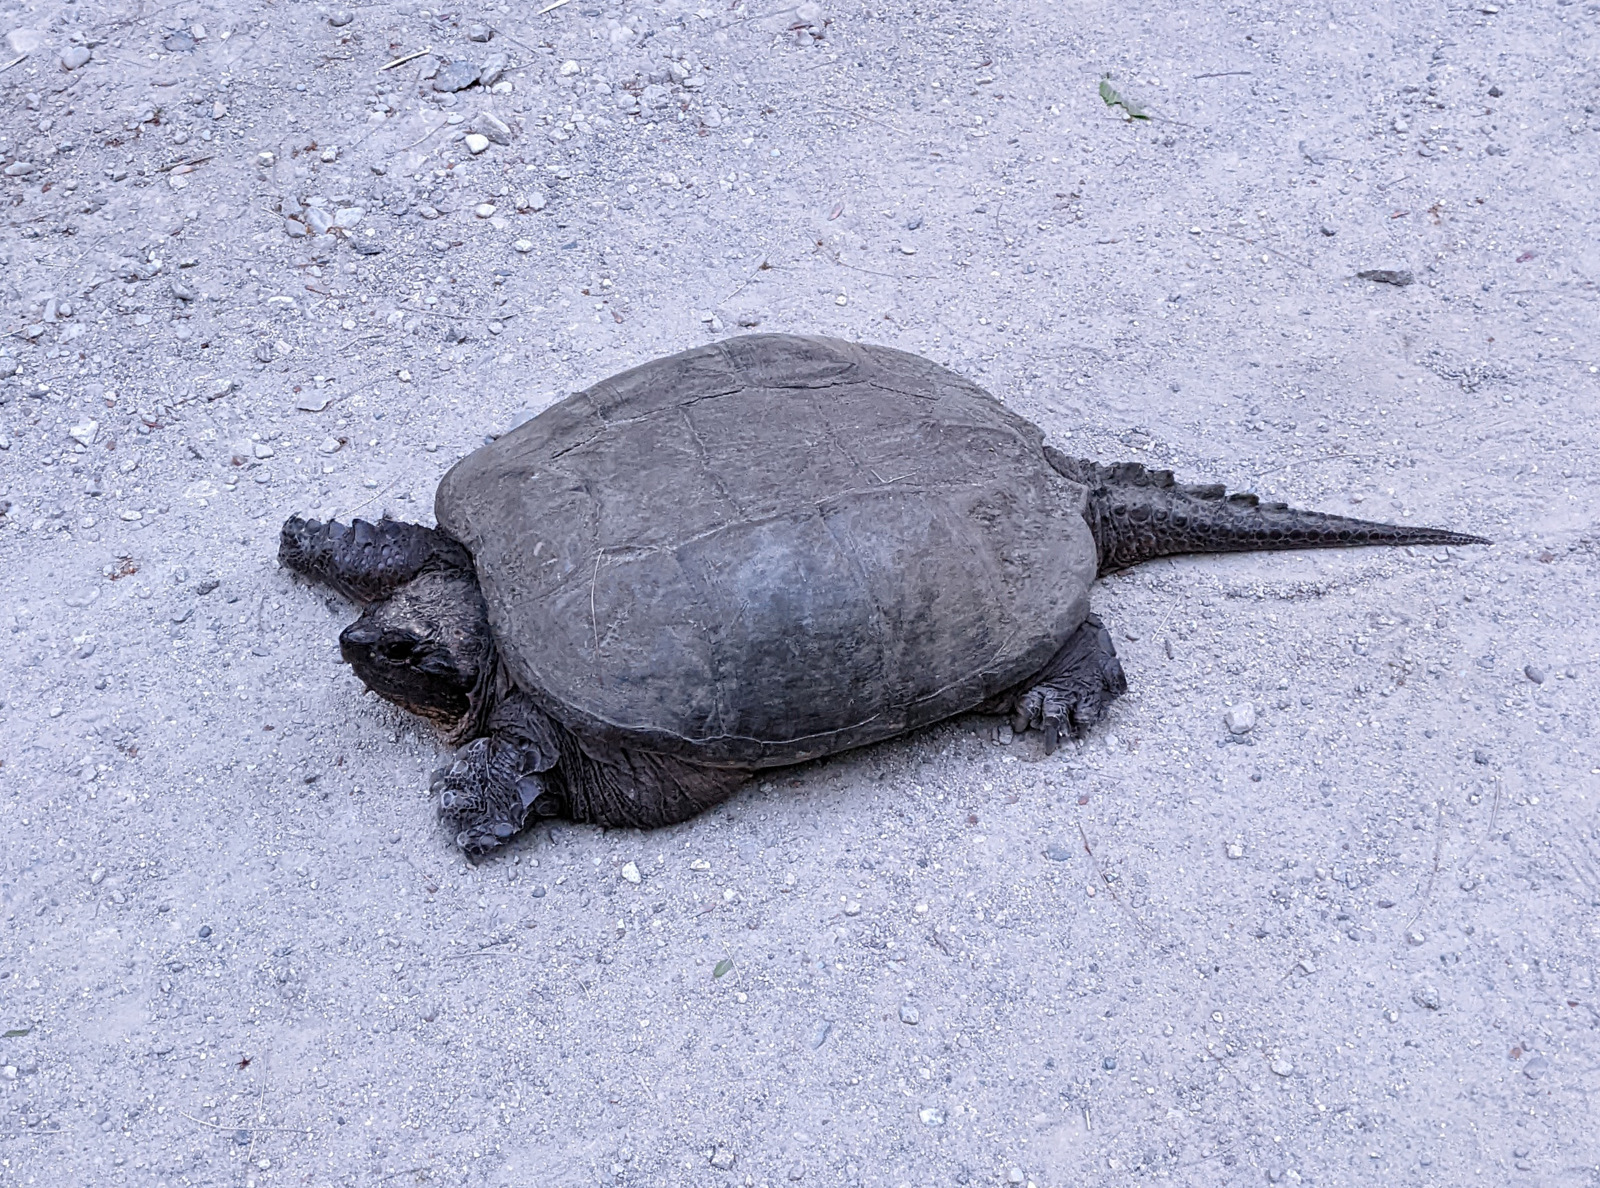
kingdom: Animalia
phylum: Chordata
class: Testudines
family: Chelydridae
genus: Chelydra
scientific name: Chelydra serpentina
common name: Common snapping turtle
